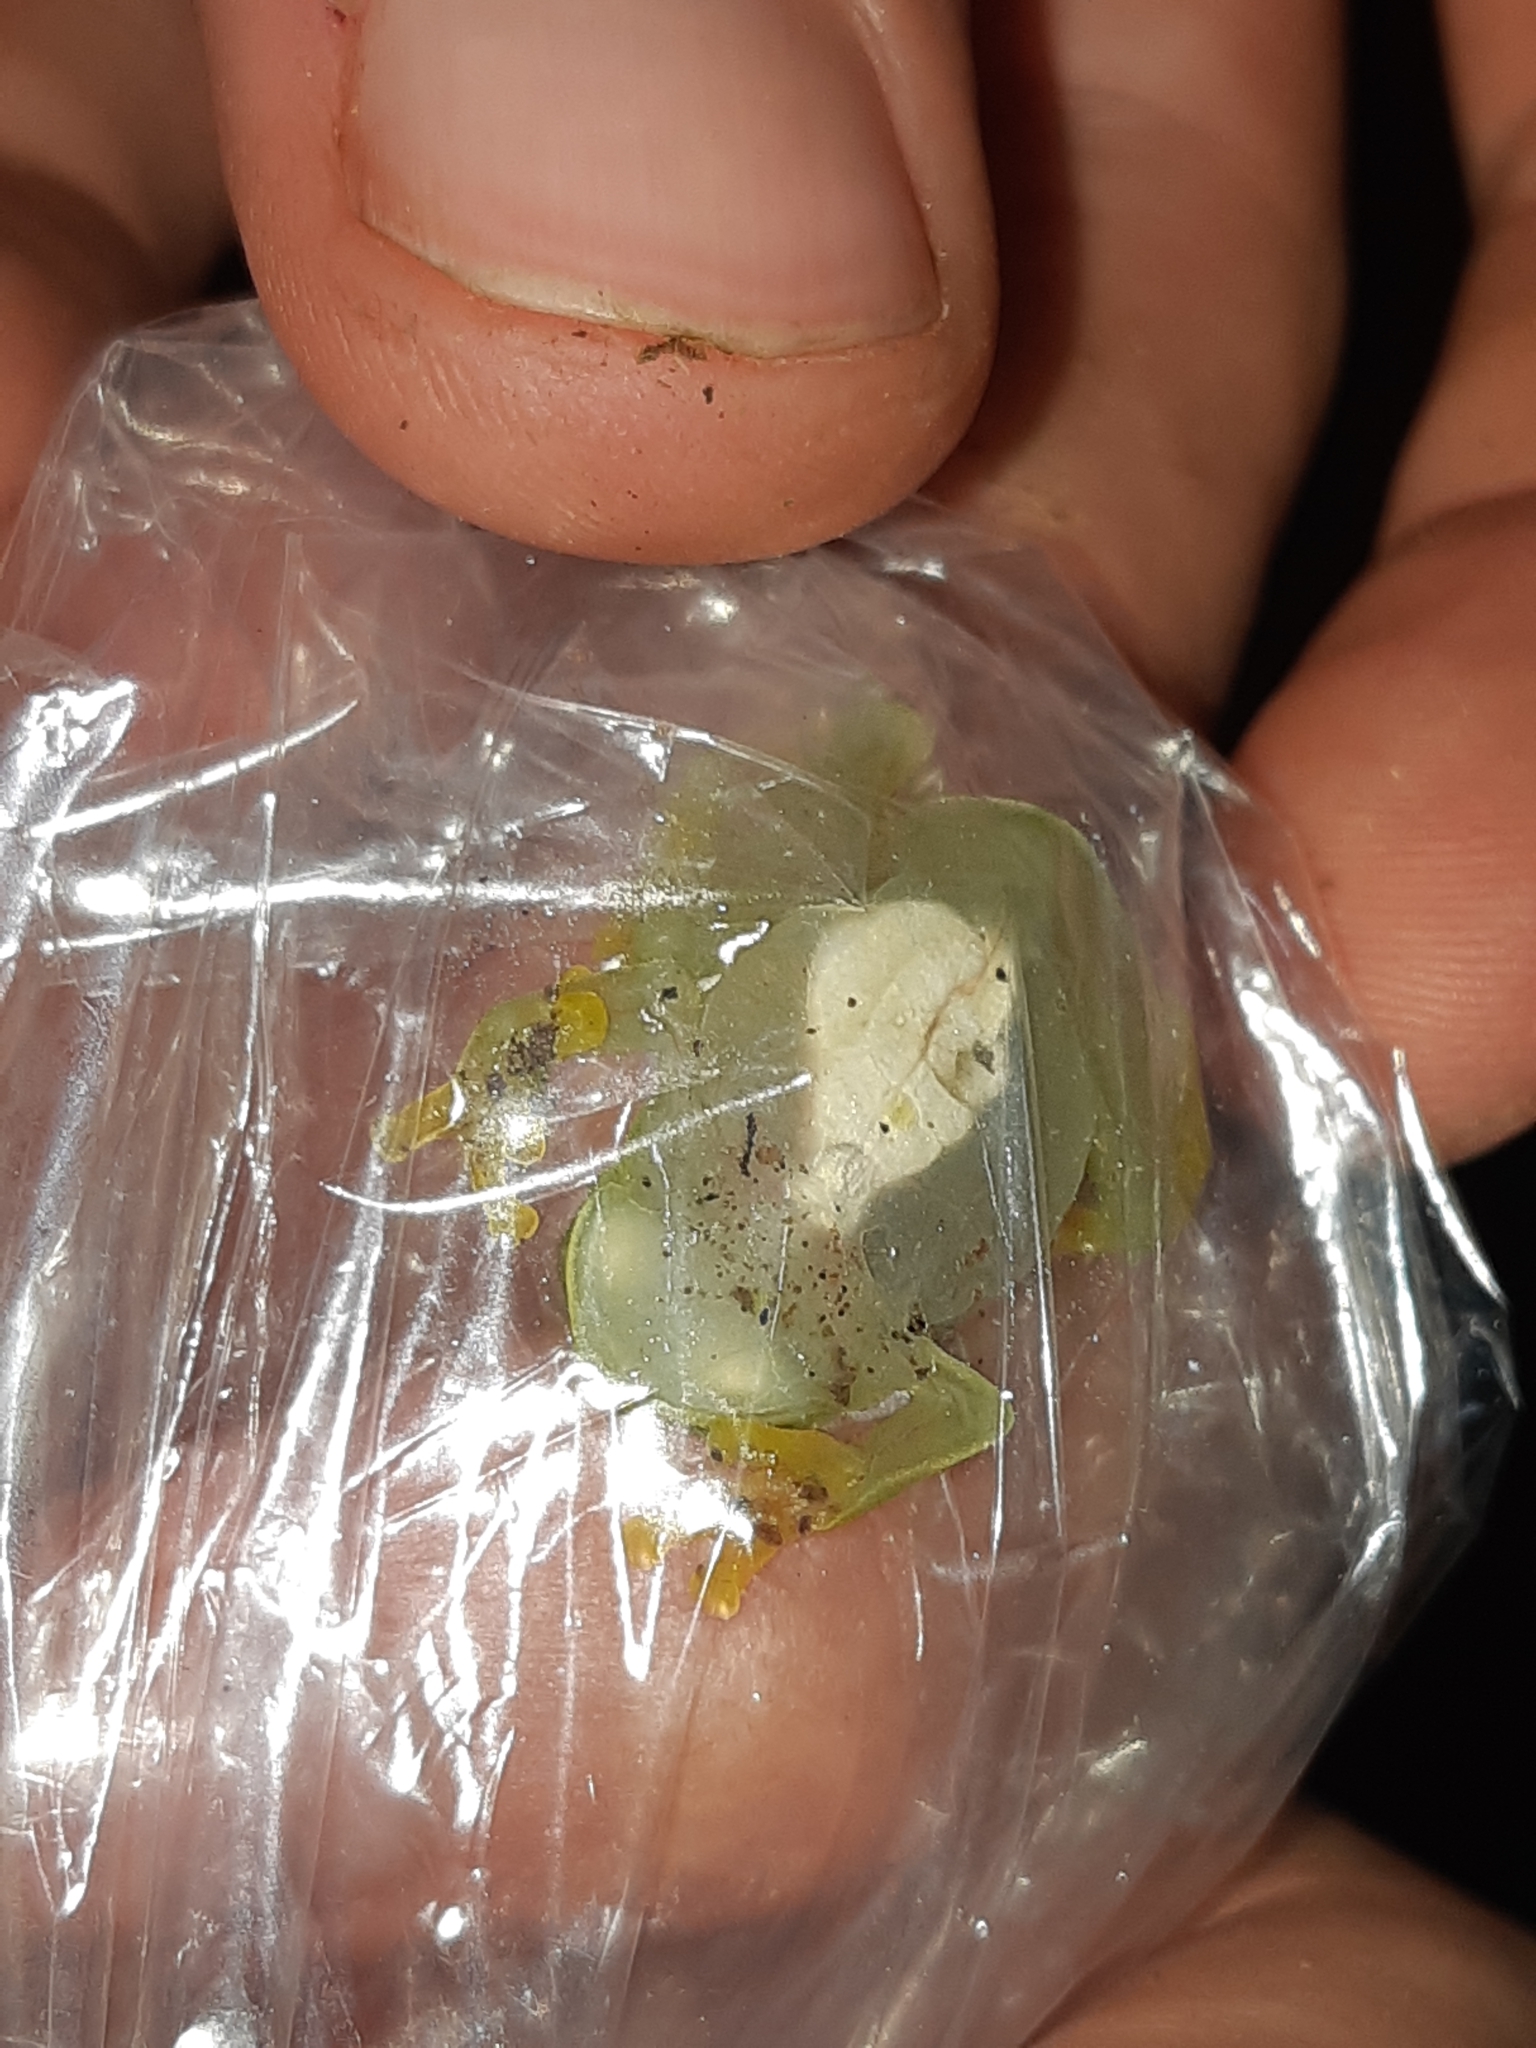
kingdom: Animalia
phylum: Chordata
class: Amphibia
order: Anura
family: Centrolenidae
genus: Hyalinobatrachium
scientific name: Hyalinobatrachium tatayoi
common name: Tatayo’s glass frog
